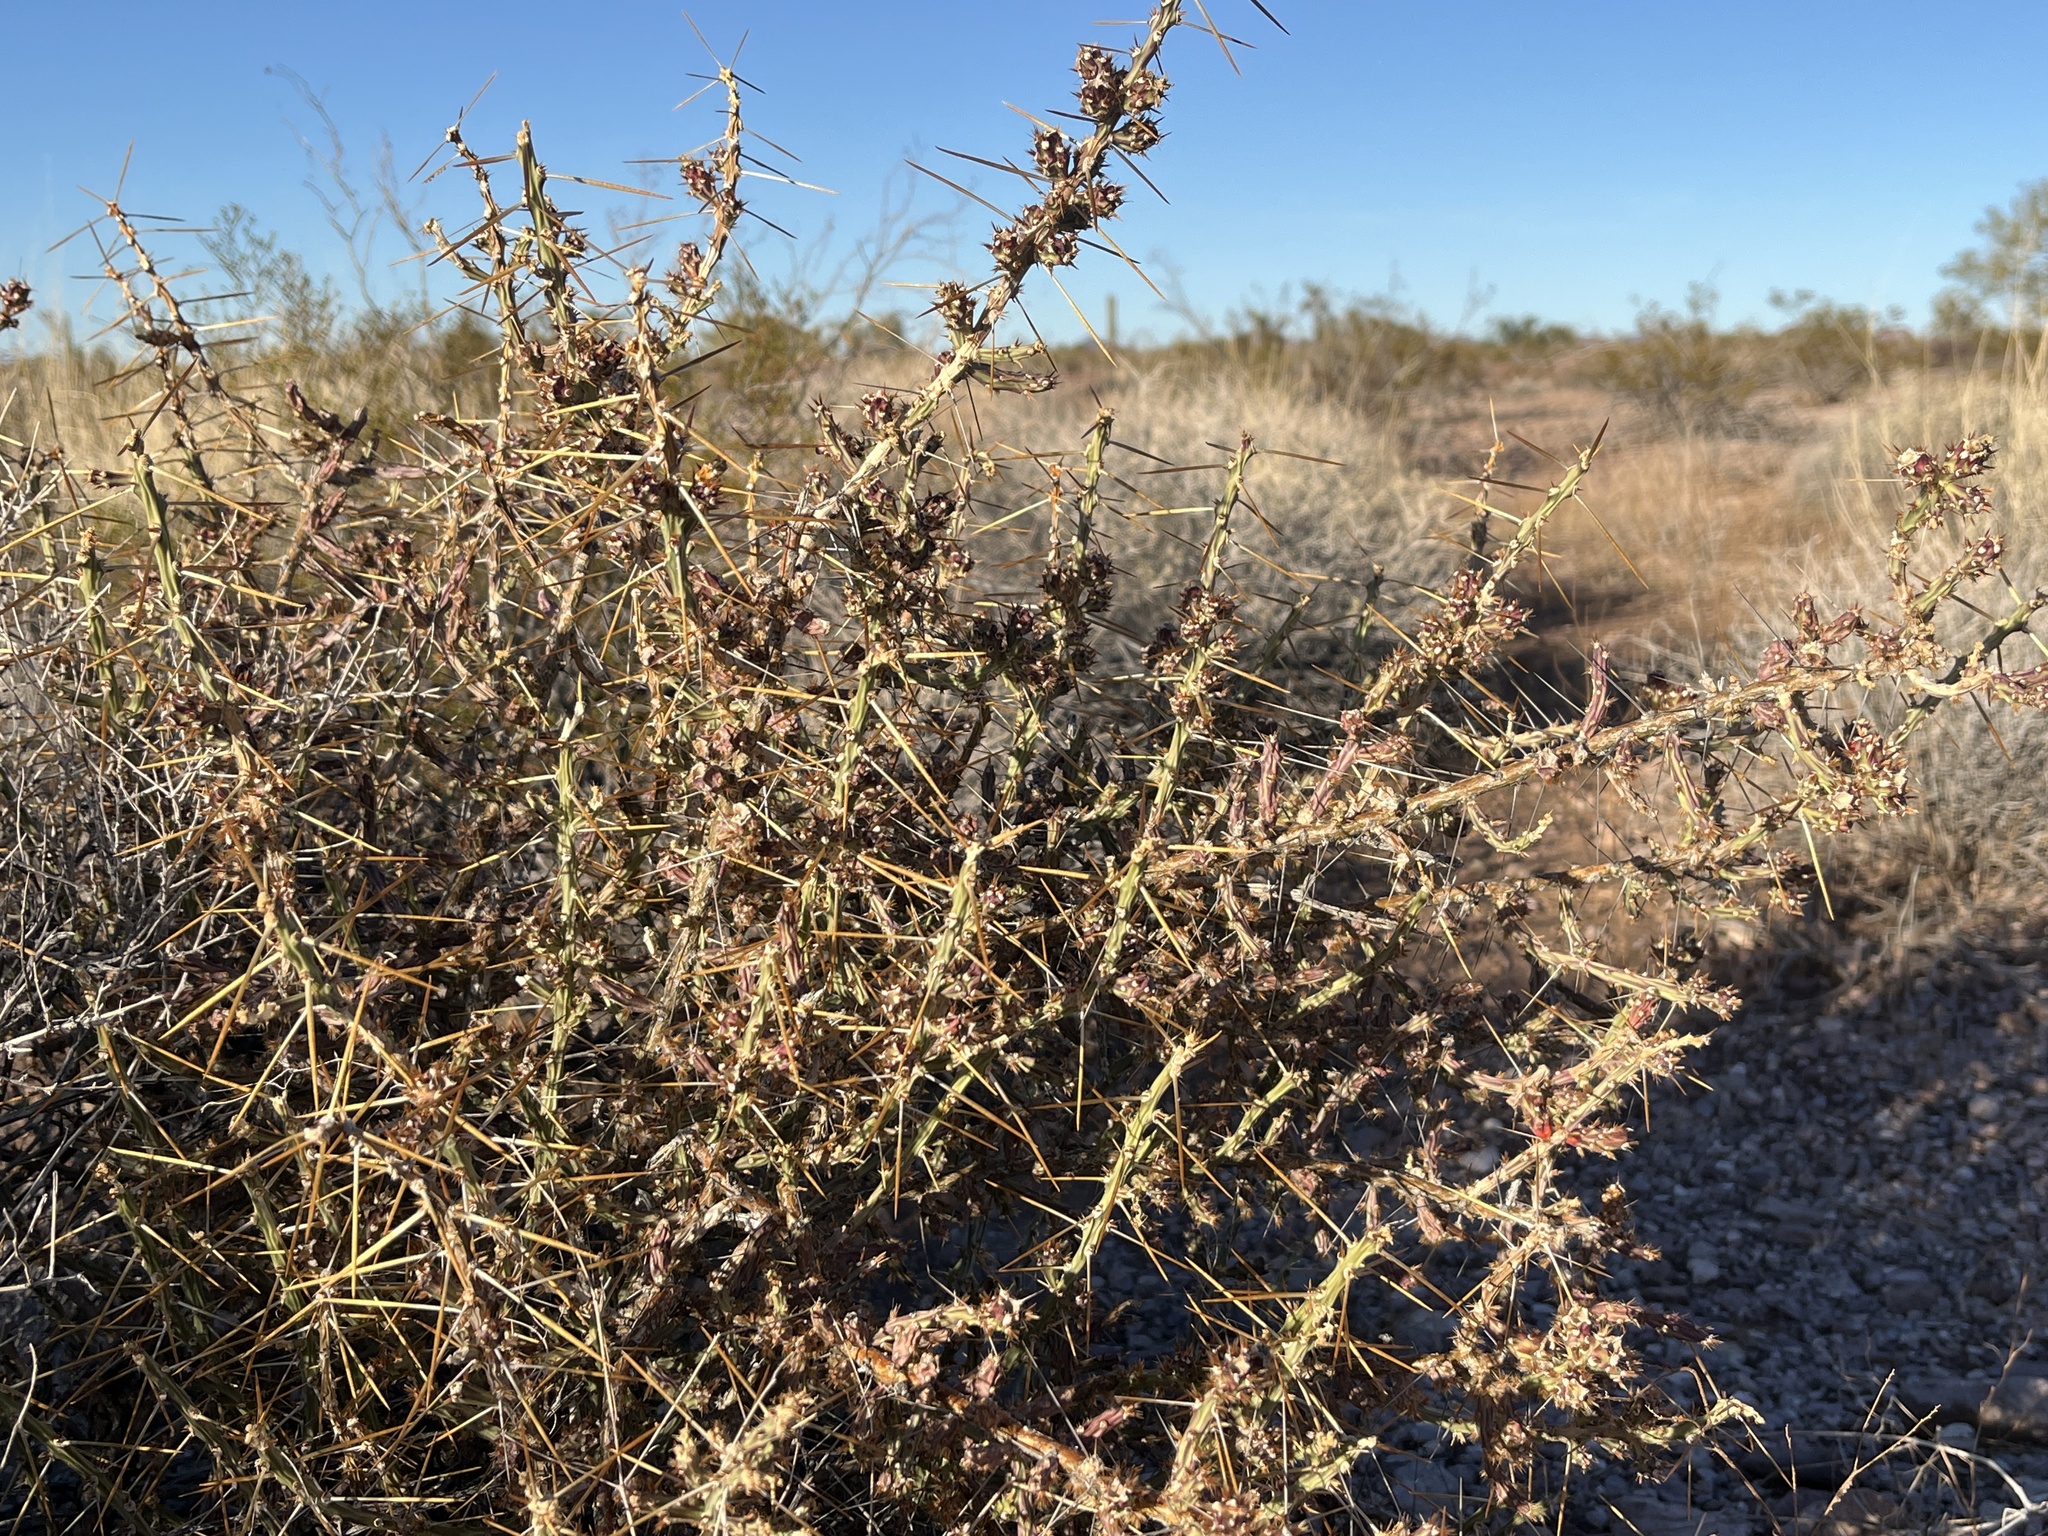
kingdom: Plantae
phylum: Tracheophyta
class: Magnoliopsida
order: Caryophyllales
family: Cactaceae
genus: Cylindropuntia
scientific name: Cylindropuntia leptocaulis
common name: Christmas cactus
